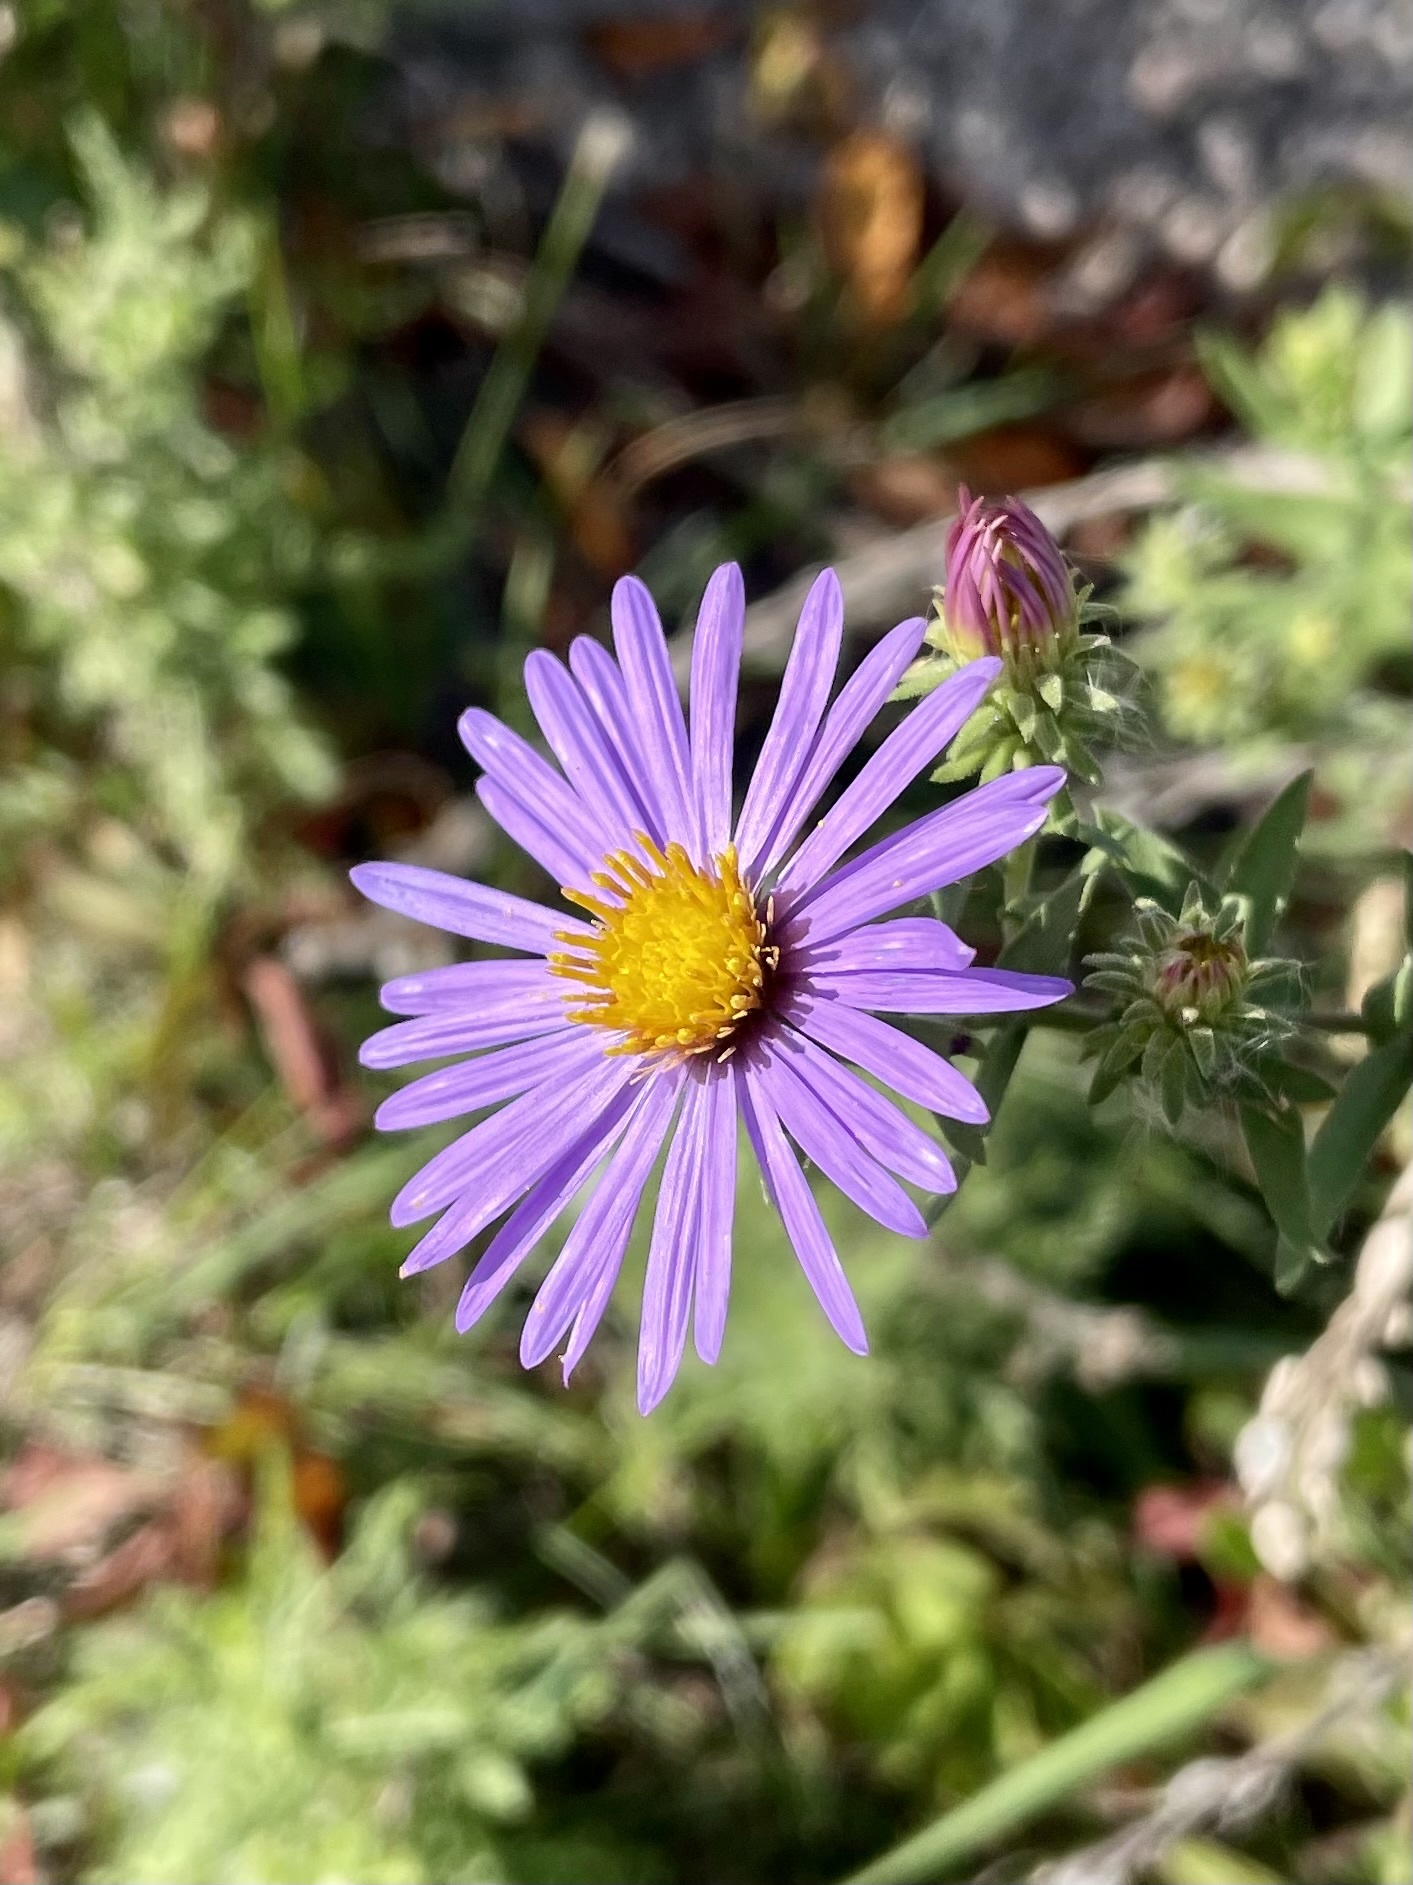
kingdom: Plantae
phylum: Tracheophyta
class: Magnoliopsida
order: Asterales
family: Asteraceae
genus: Symphyotrichum
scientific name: Symphyotrichum oblongifolium
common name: Aromatic aster
